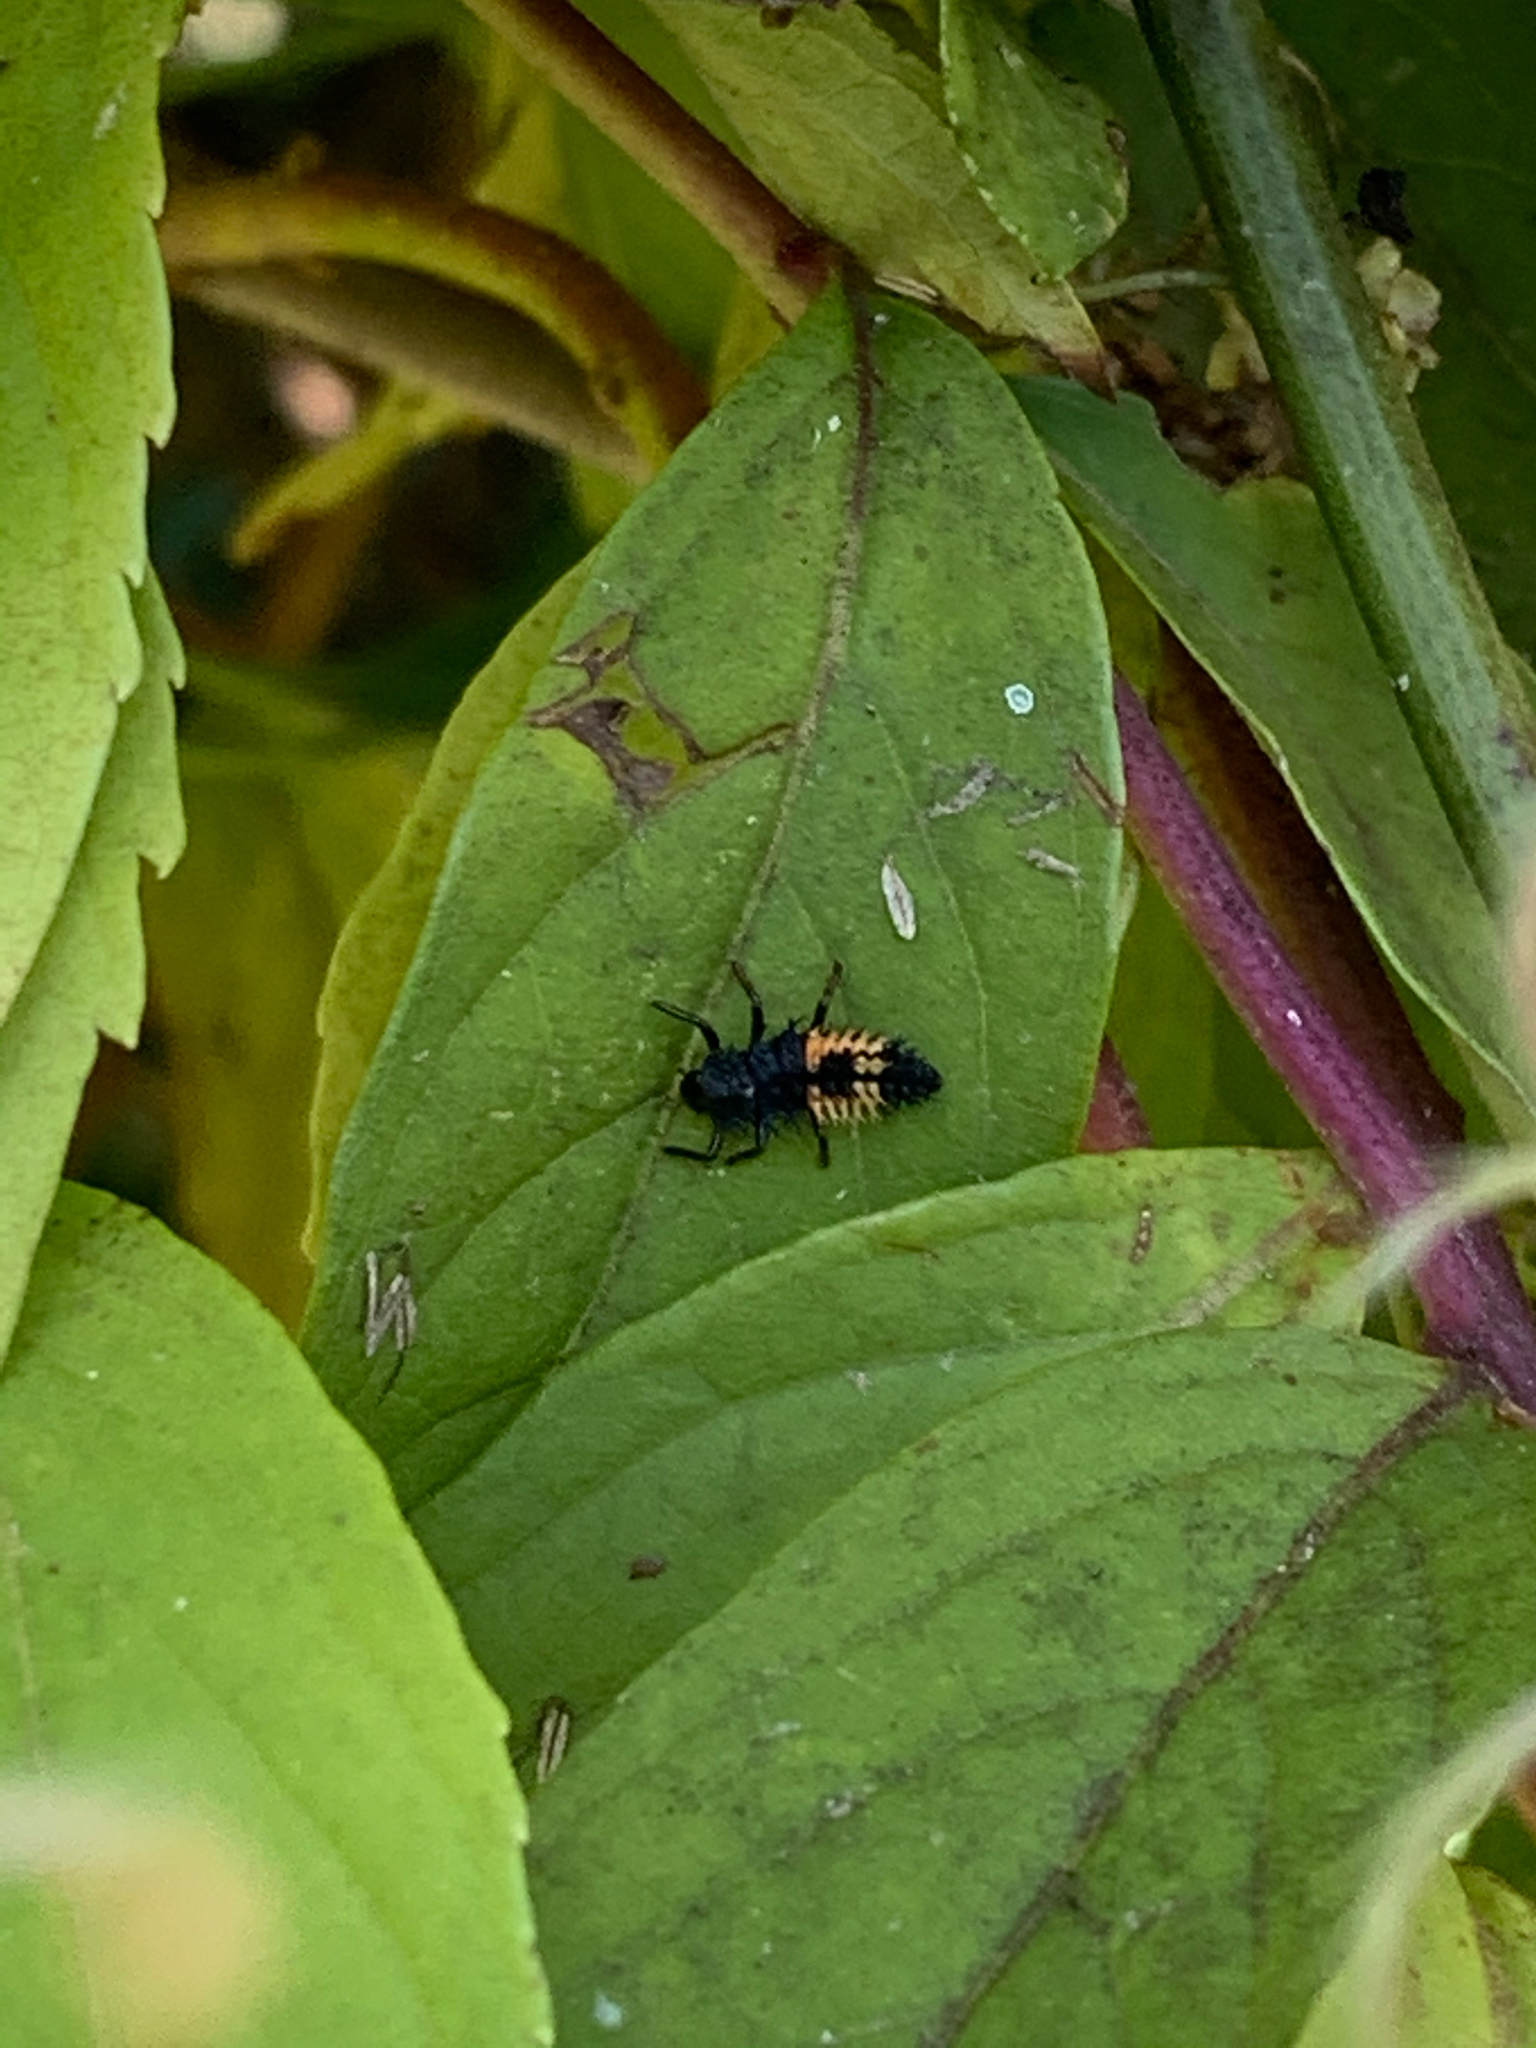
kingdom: Animalia
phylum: Arthropoda
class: Insecta
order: Coleoptera
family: Coccinellidae
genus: Harmonia
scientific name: Harmonia axyridis
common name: Harlequin ladybird
